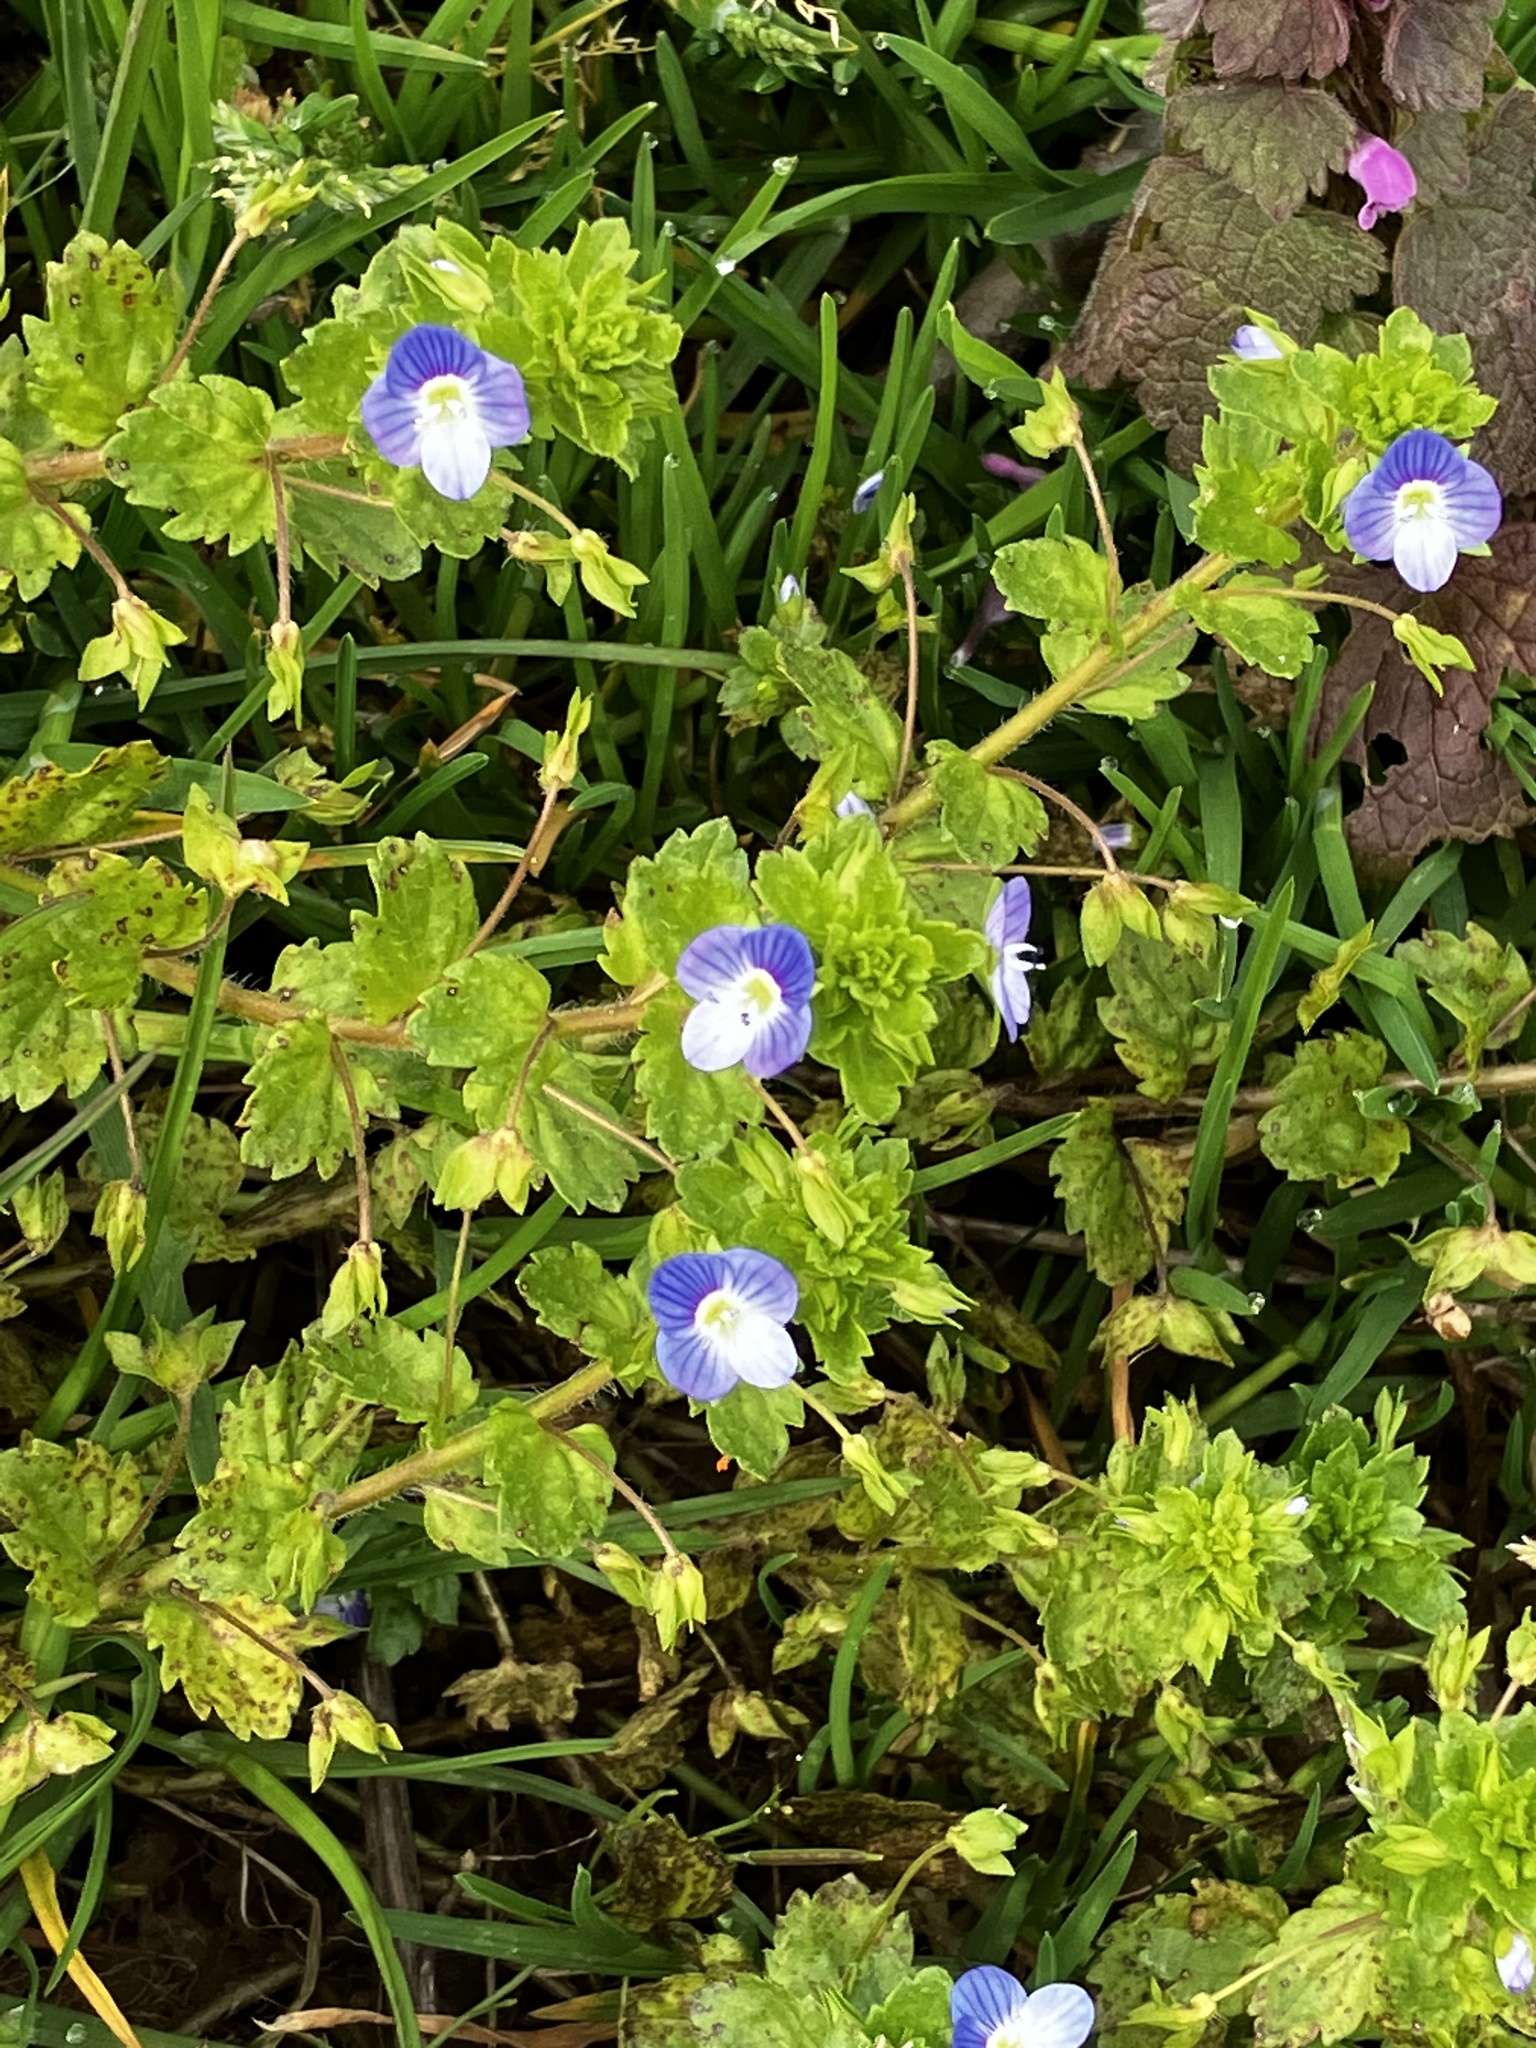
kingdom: Plantae
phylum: Tracheophyta
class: Magnoliopsida
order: Lamiales
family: Plantaginaceae
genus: Veronica
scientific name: Veronica persica
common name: Common field-speedwell
